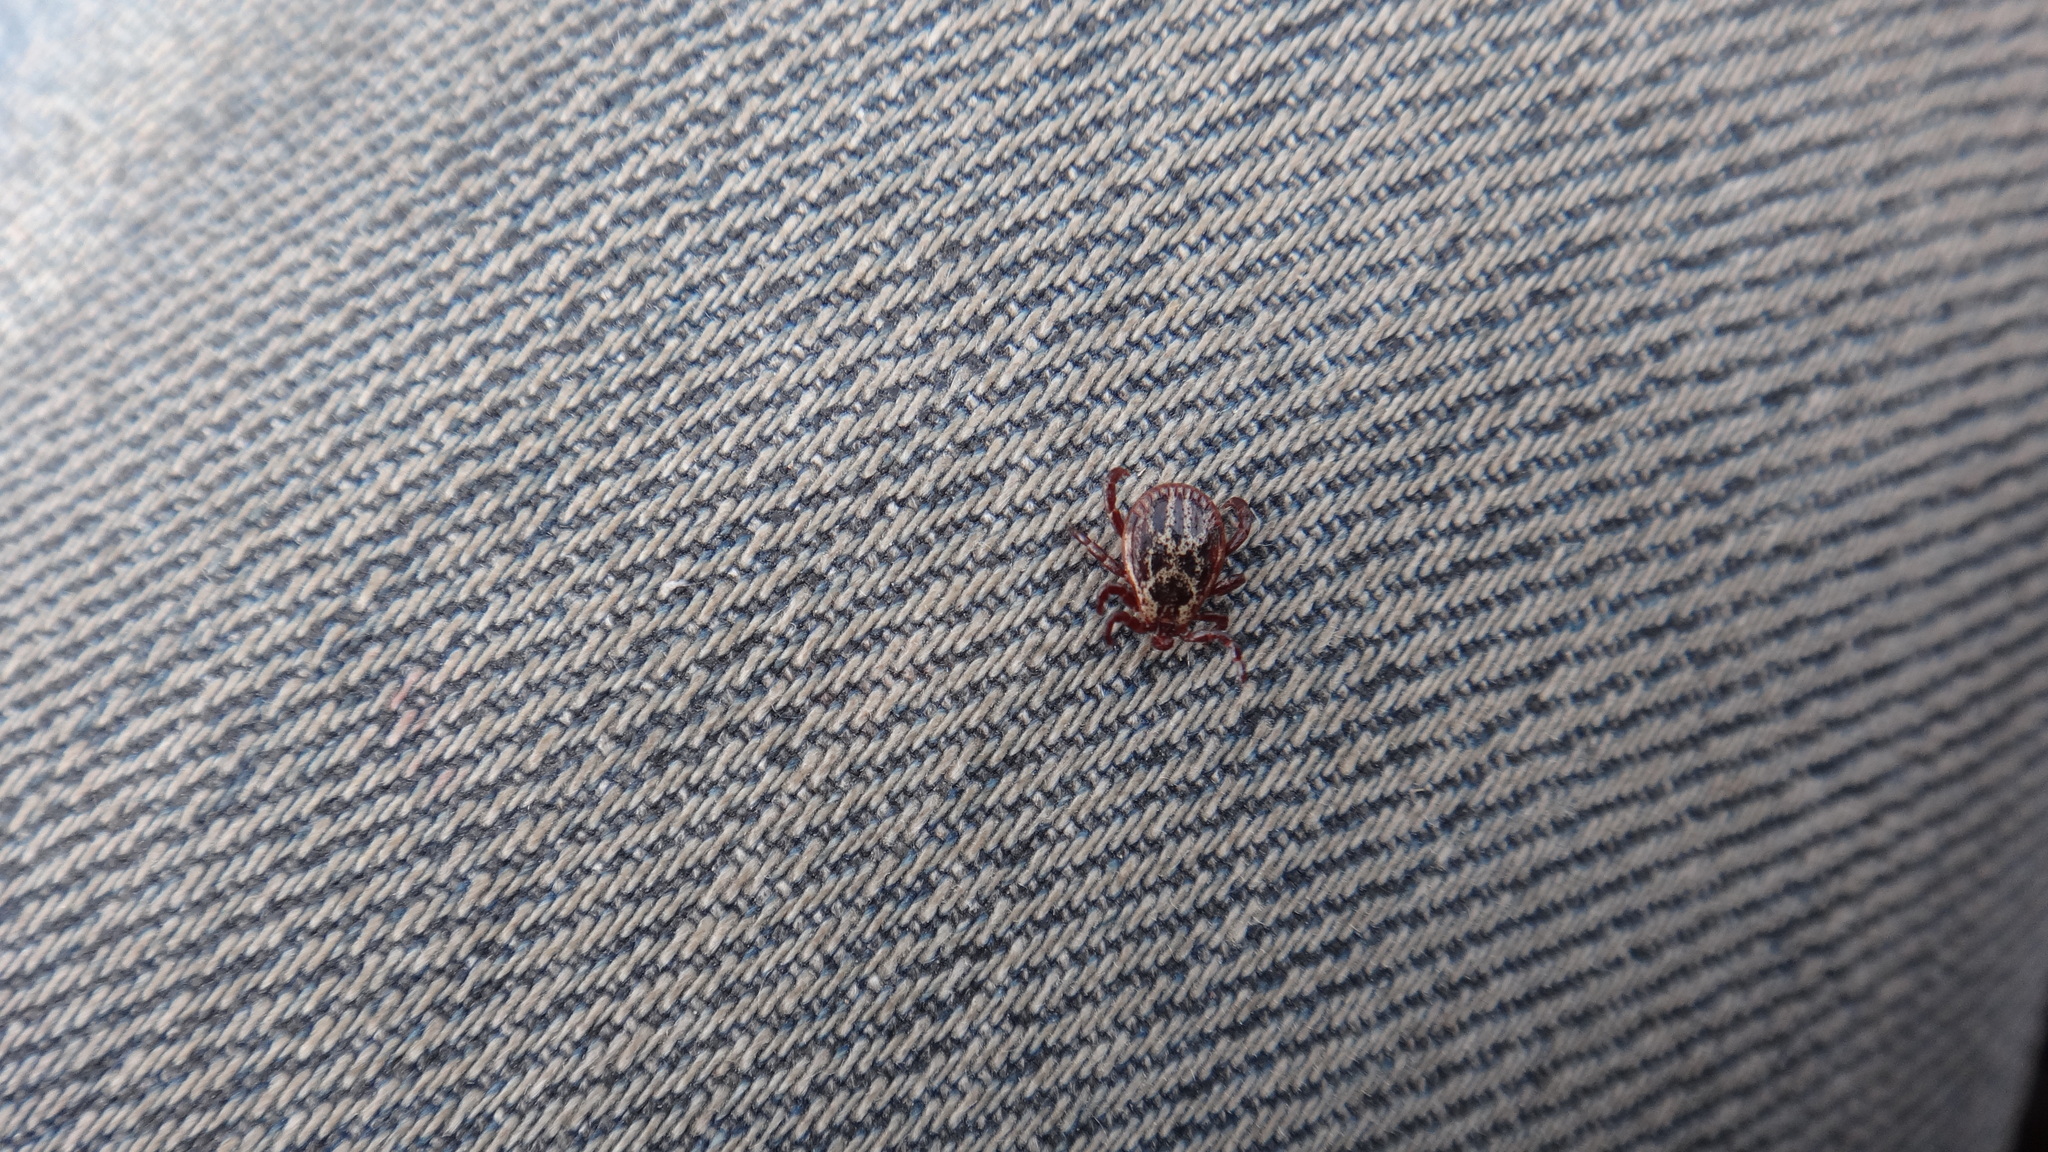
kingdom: Animalia
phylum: Arthropoda
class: Arachnida
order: Ixodida
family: Ixodidae
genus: Dermacentor
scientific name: Dermacentor reticulatus
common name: Ornate cow tick
